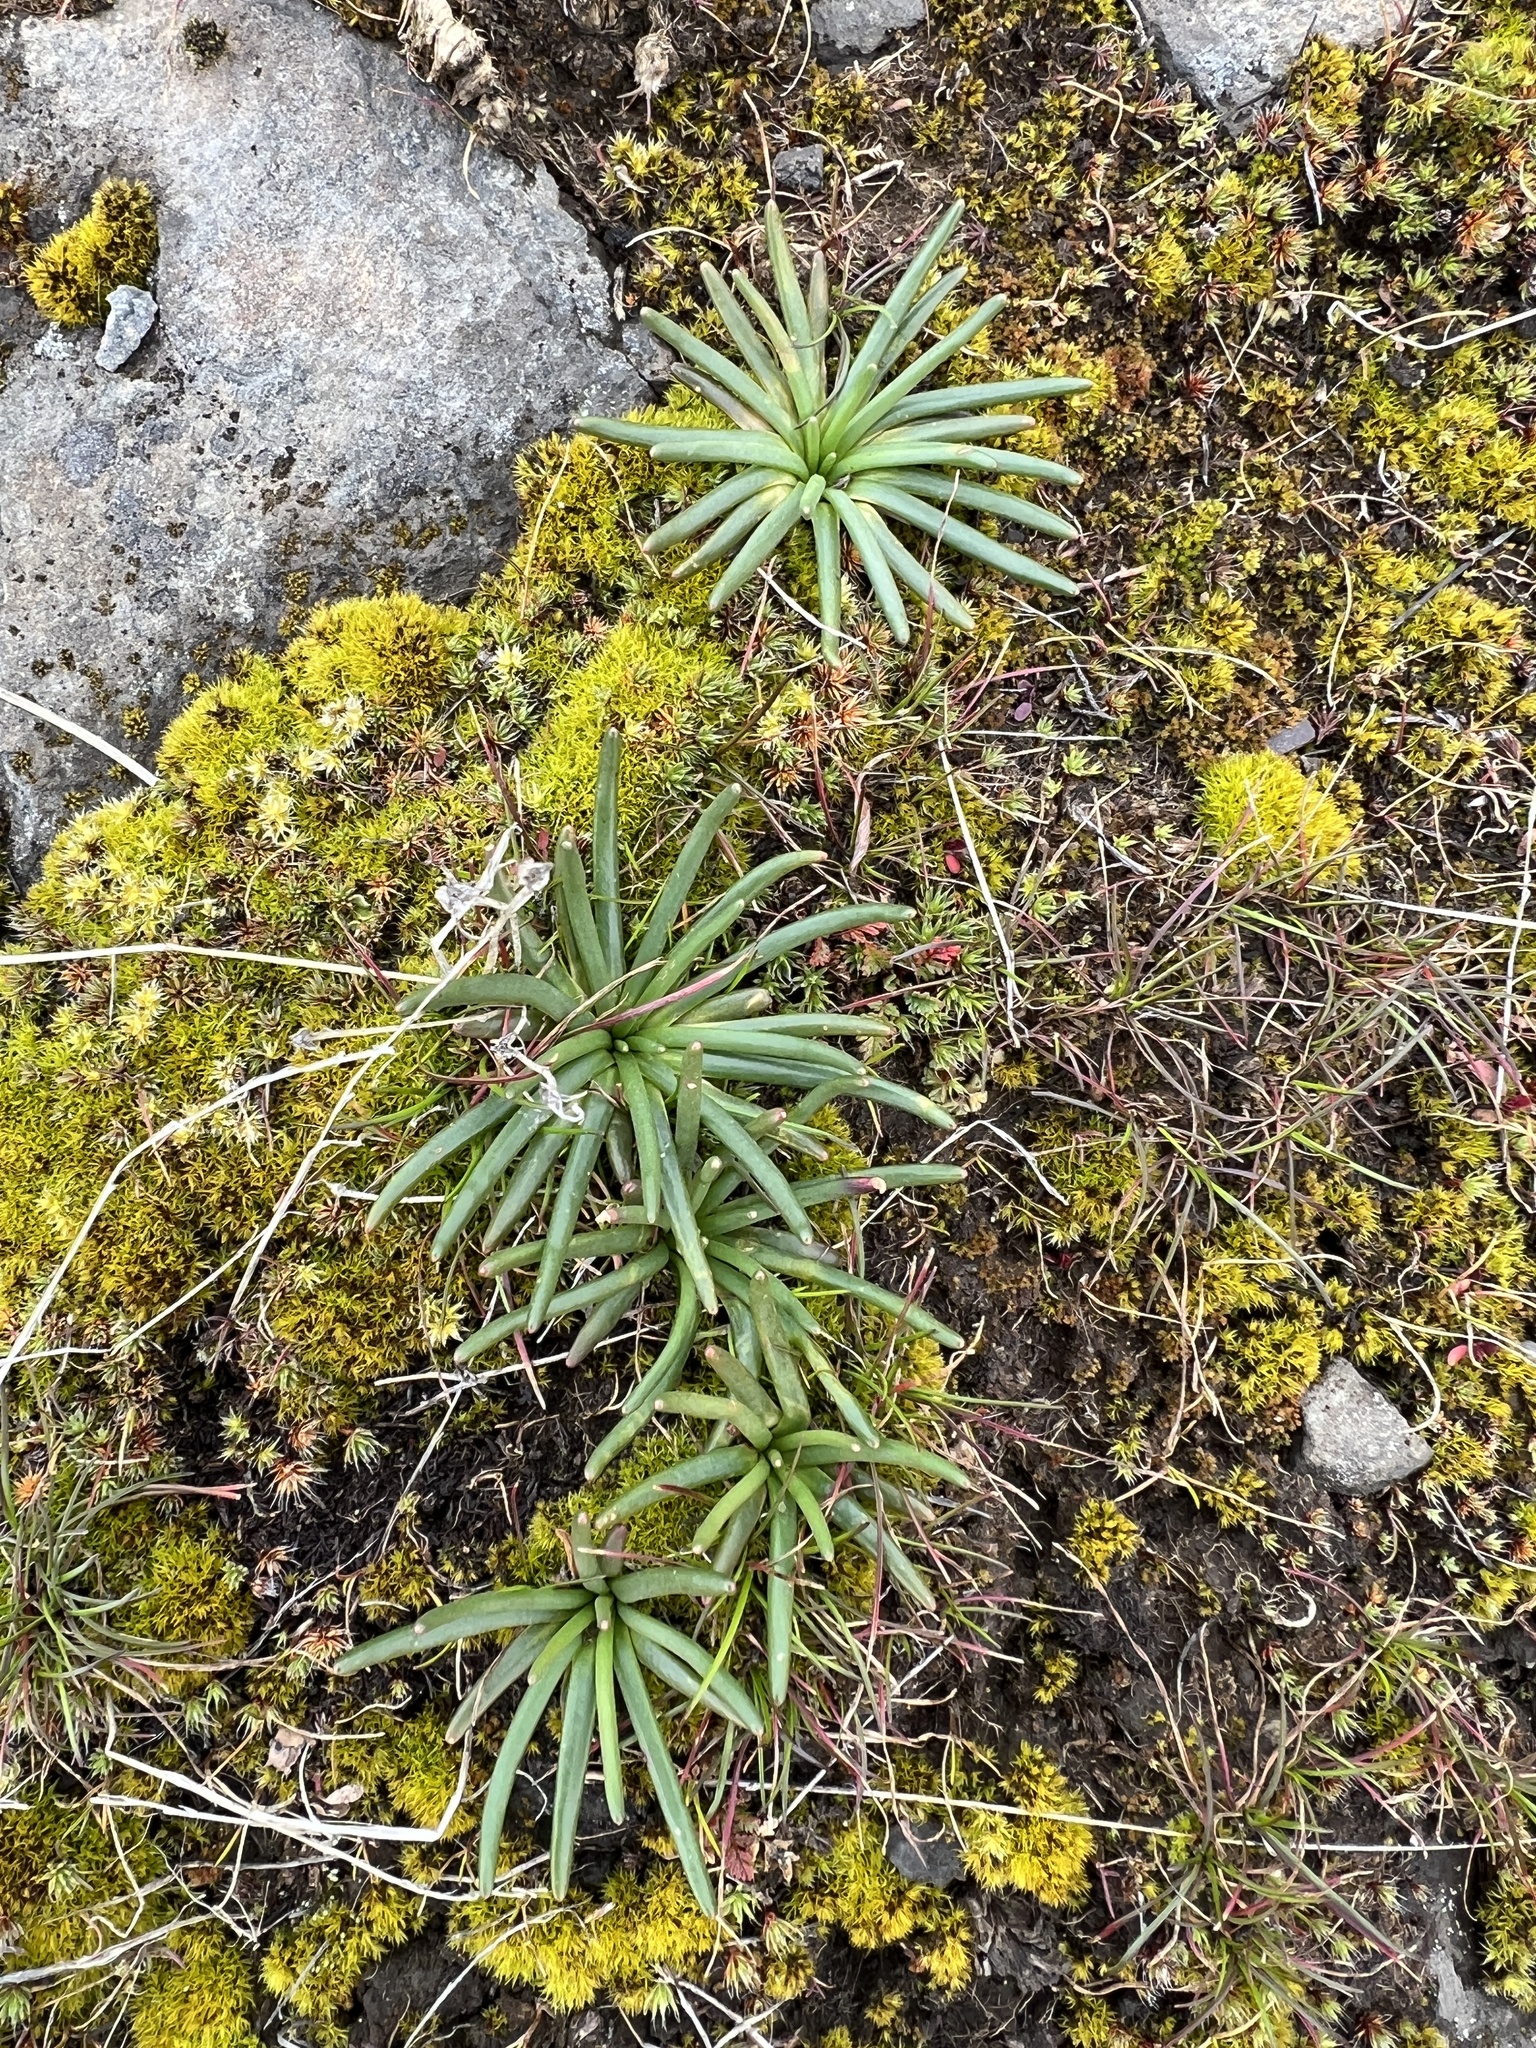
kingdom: Plantae
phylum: Tracheophyta
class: Magnoliopsida
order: Caryophyllales
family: Montiaceae
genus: Lewisia
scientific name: Lewisia rediviva
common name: Bitter-root
